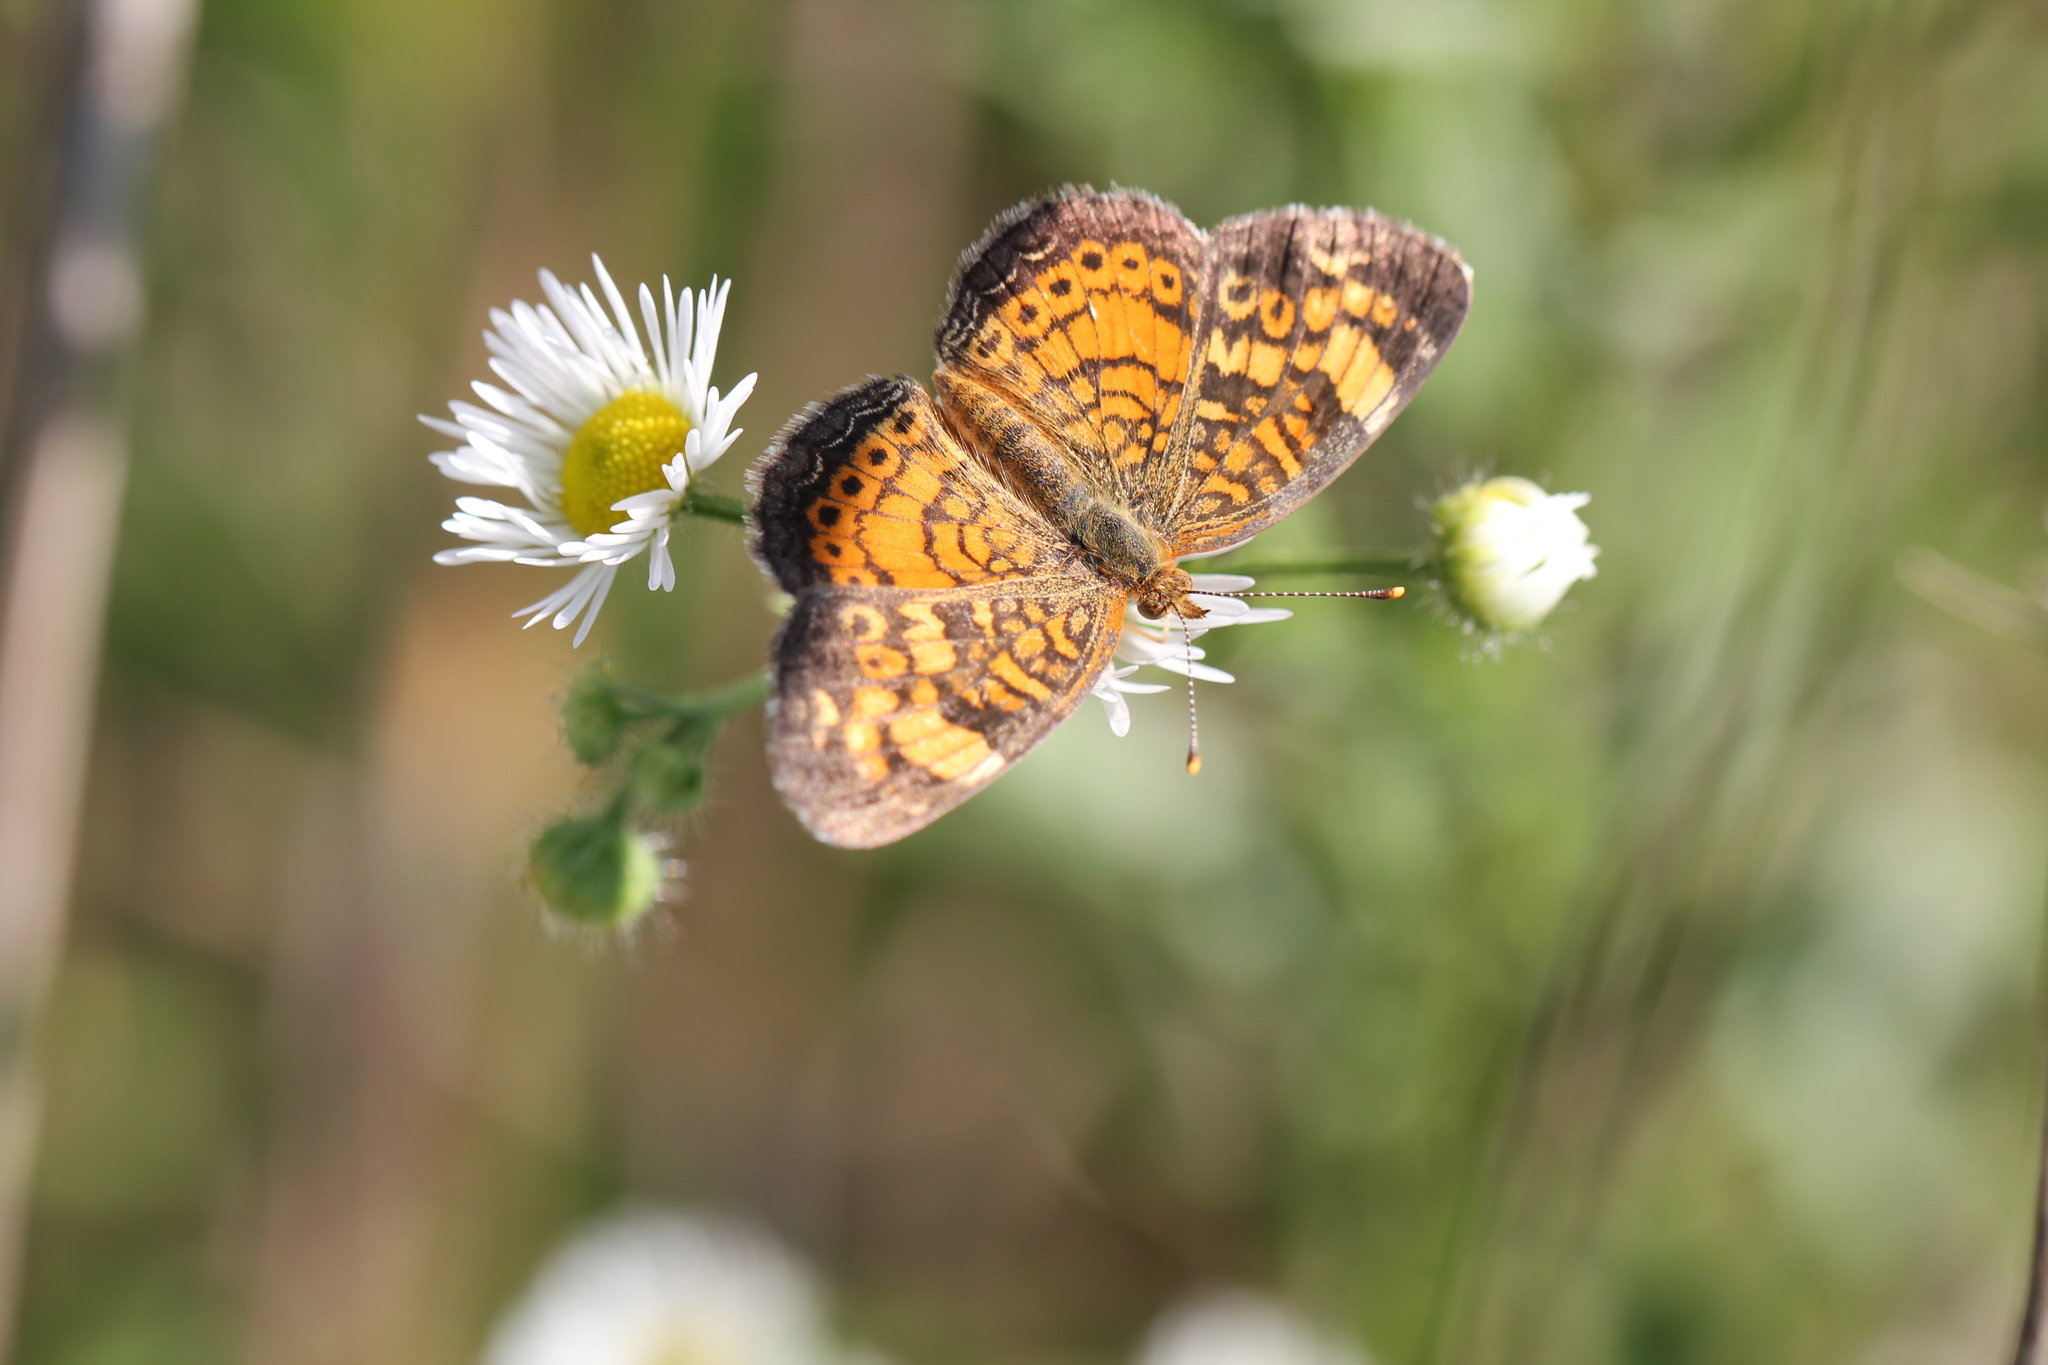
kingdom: Animalia
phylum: Arthropoda
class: Insecta
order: Lepidoptera
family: Nymphalidae
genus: Phyciodes
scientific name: Phyciodes tharos
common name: Pearl crescent
